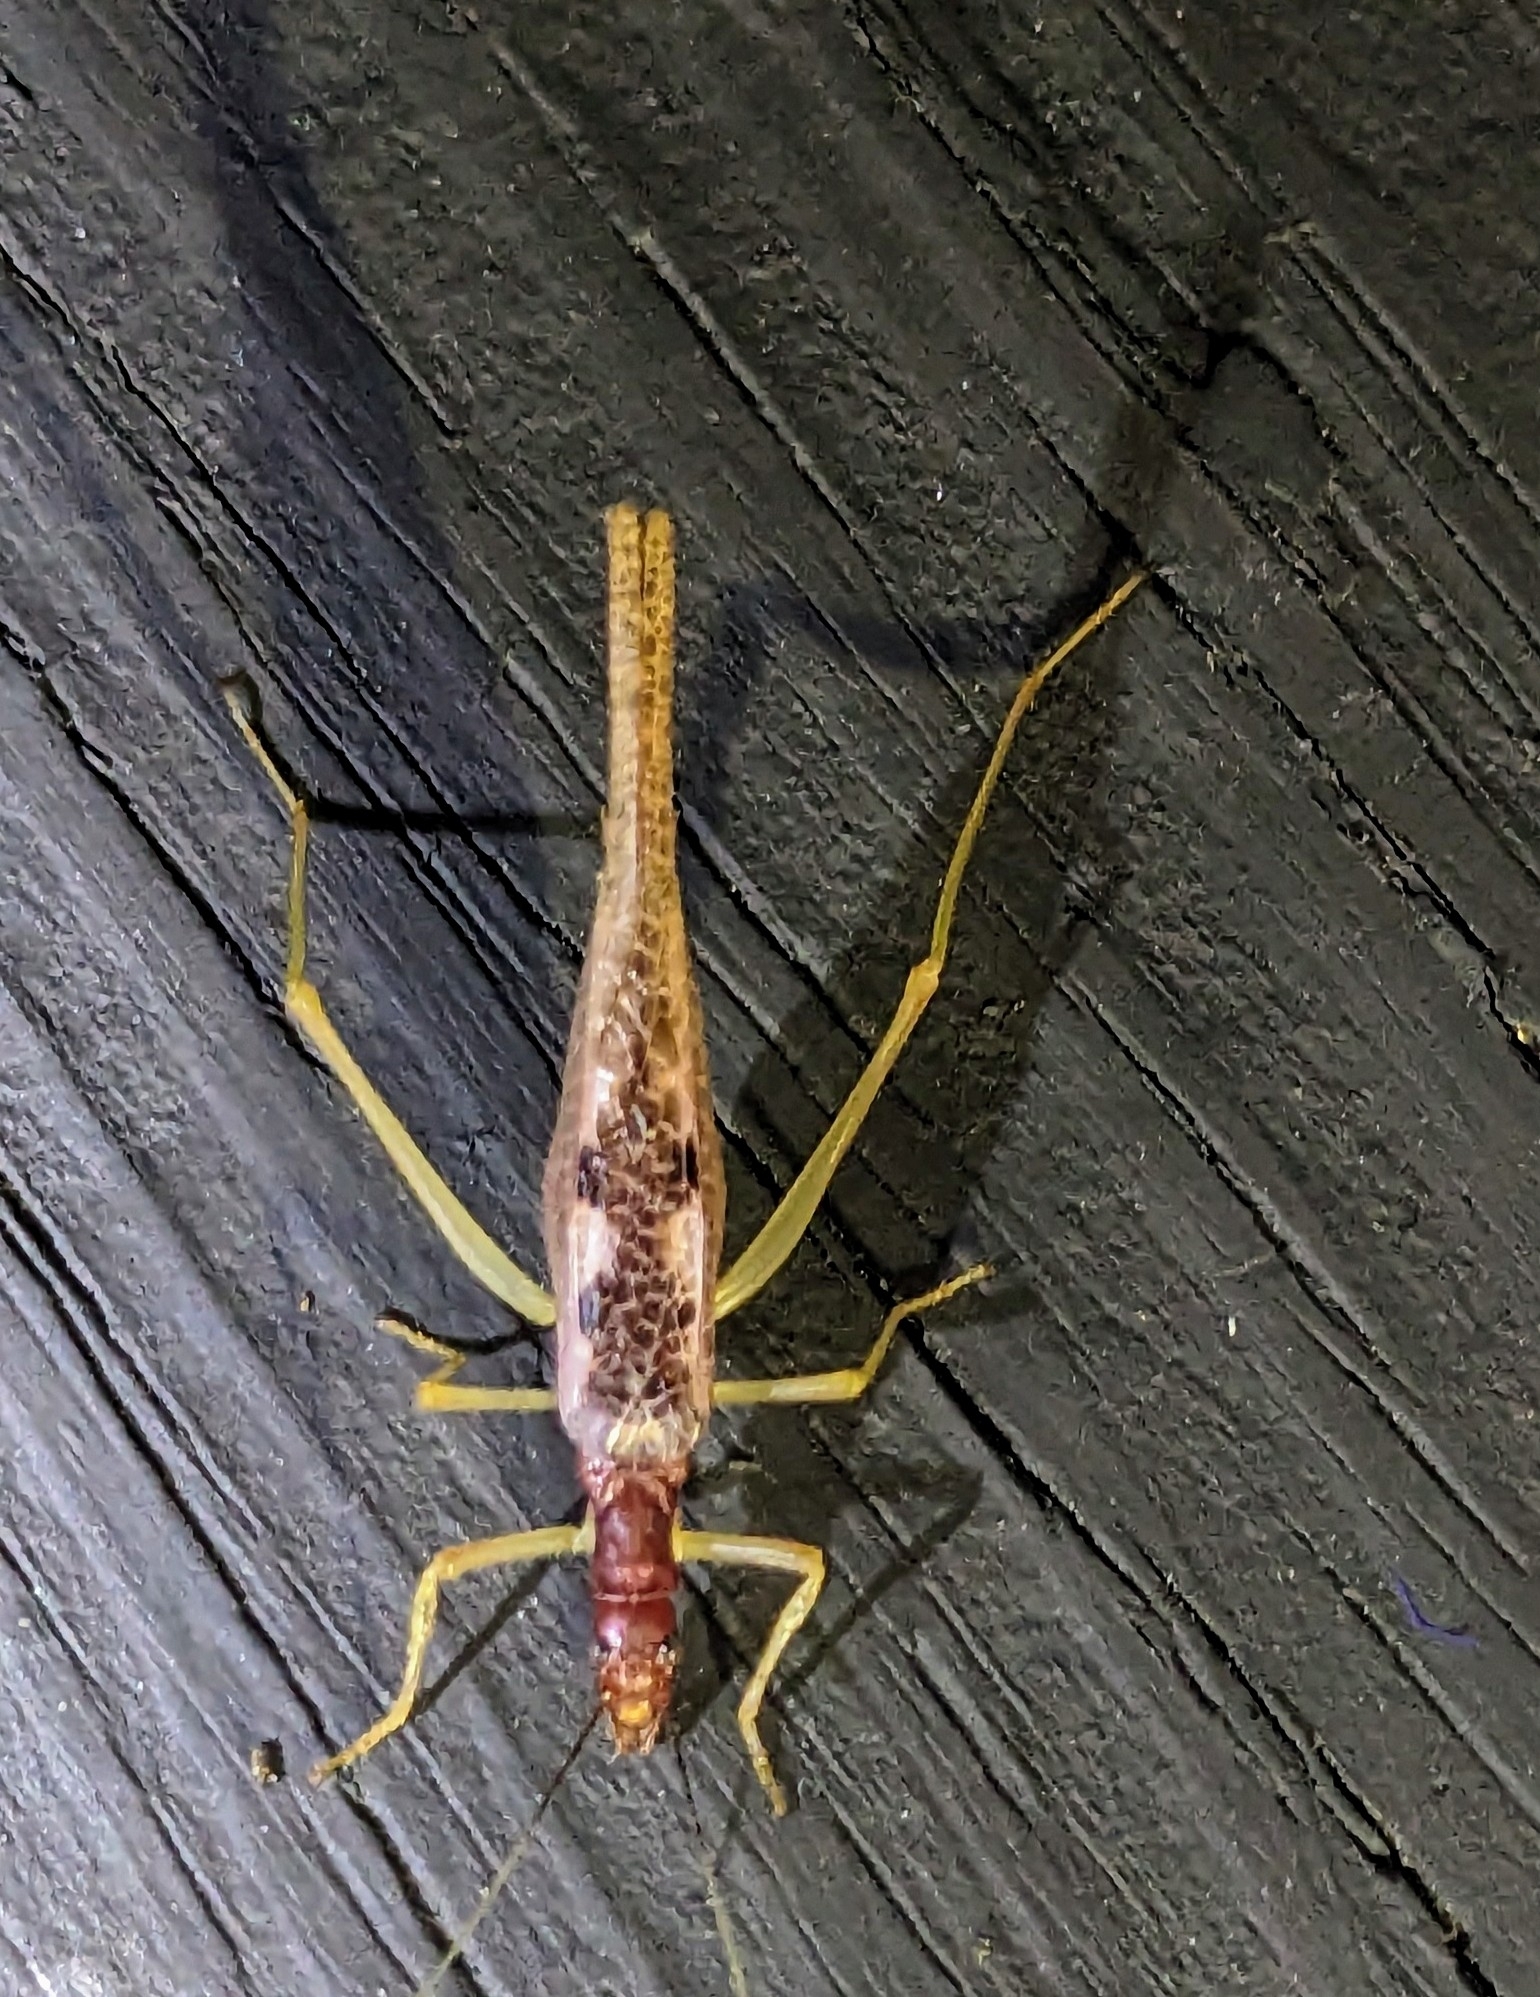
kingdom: Animalia
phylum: Arthropoda
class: Insecta
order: Orthoptera
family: Gryllidae
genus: Neoxabea
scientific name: Neoxabea bipunctata
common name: Two-spotted tree cricket
